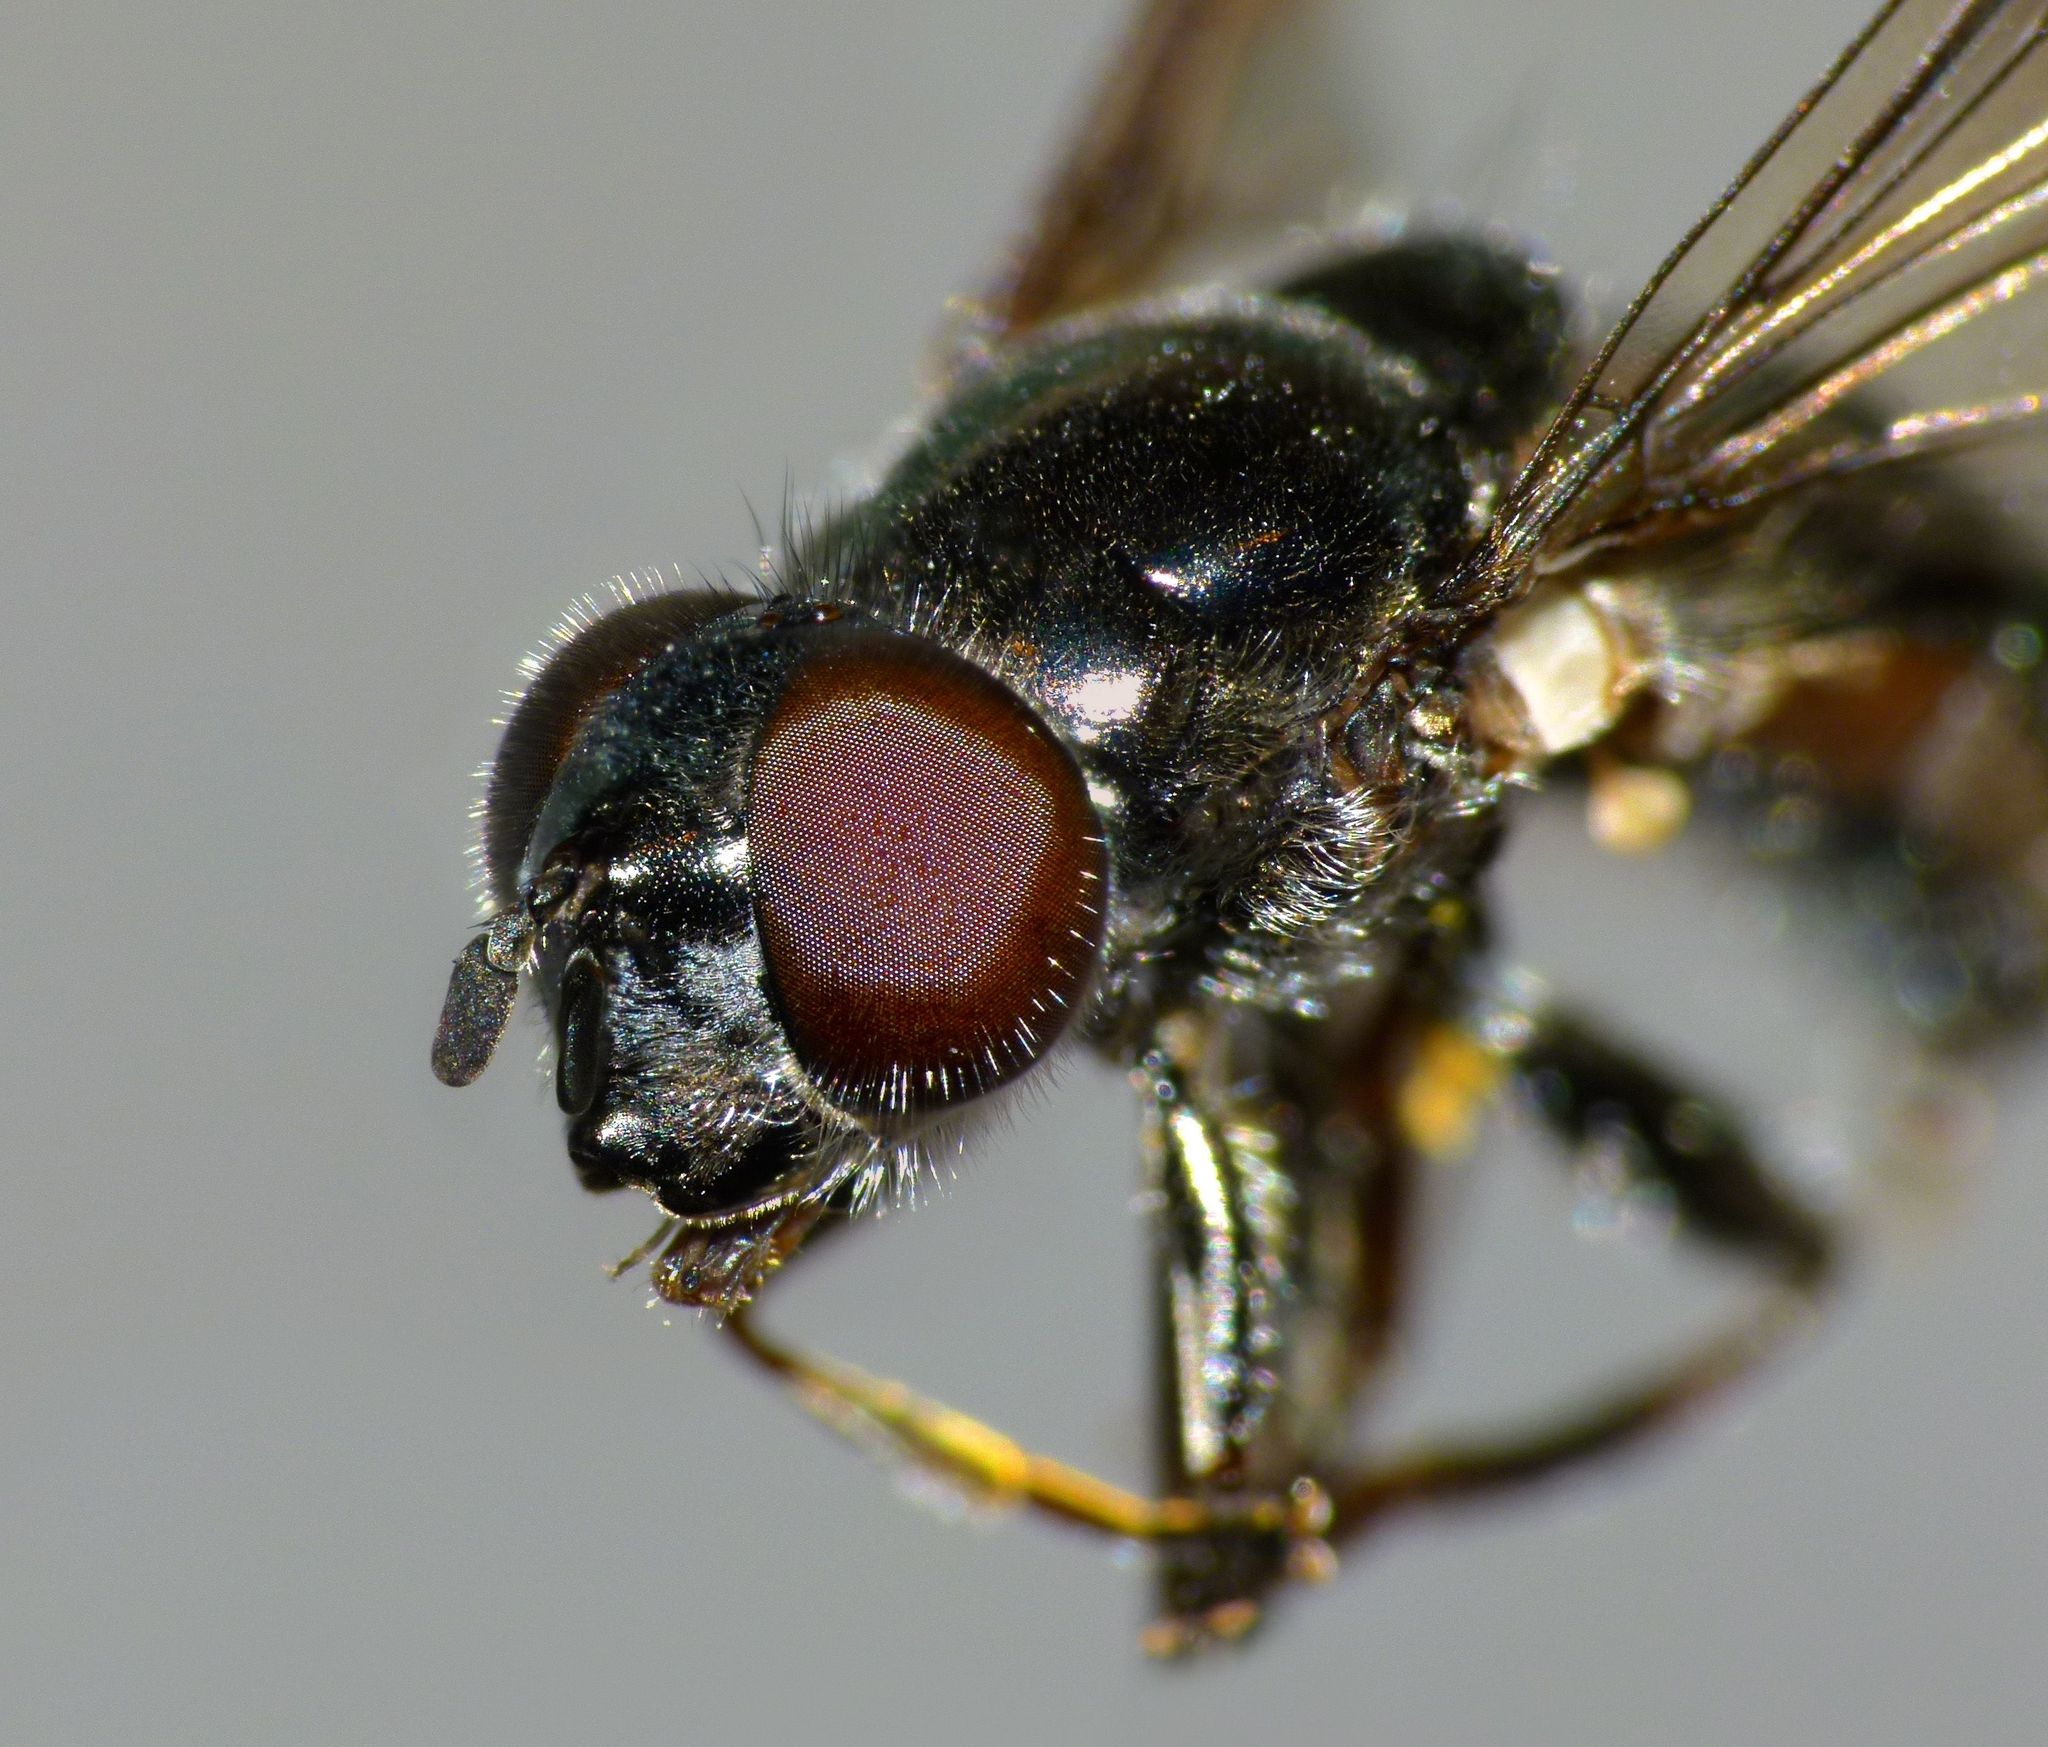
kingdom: Animalia
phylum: Arthropoda
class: Insecta
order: Diptera
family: Syrphidae
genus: Psilota
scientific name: Psilota decessum
